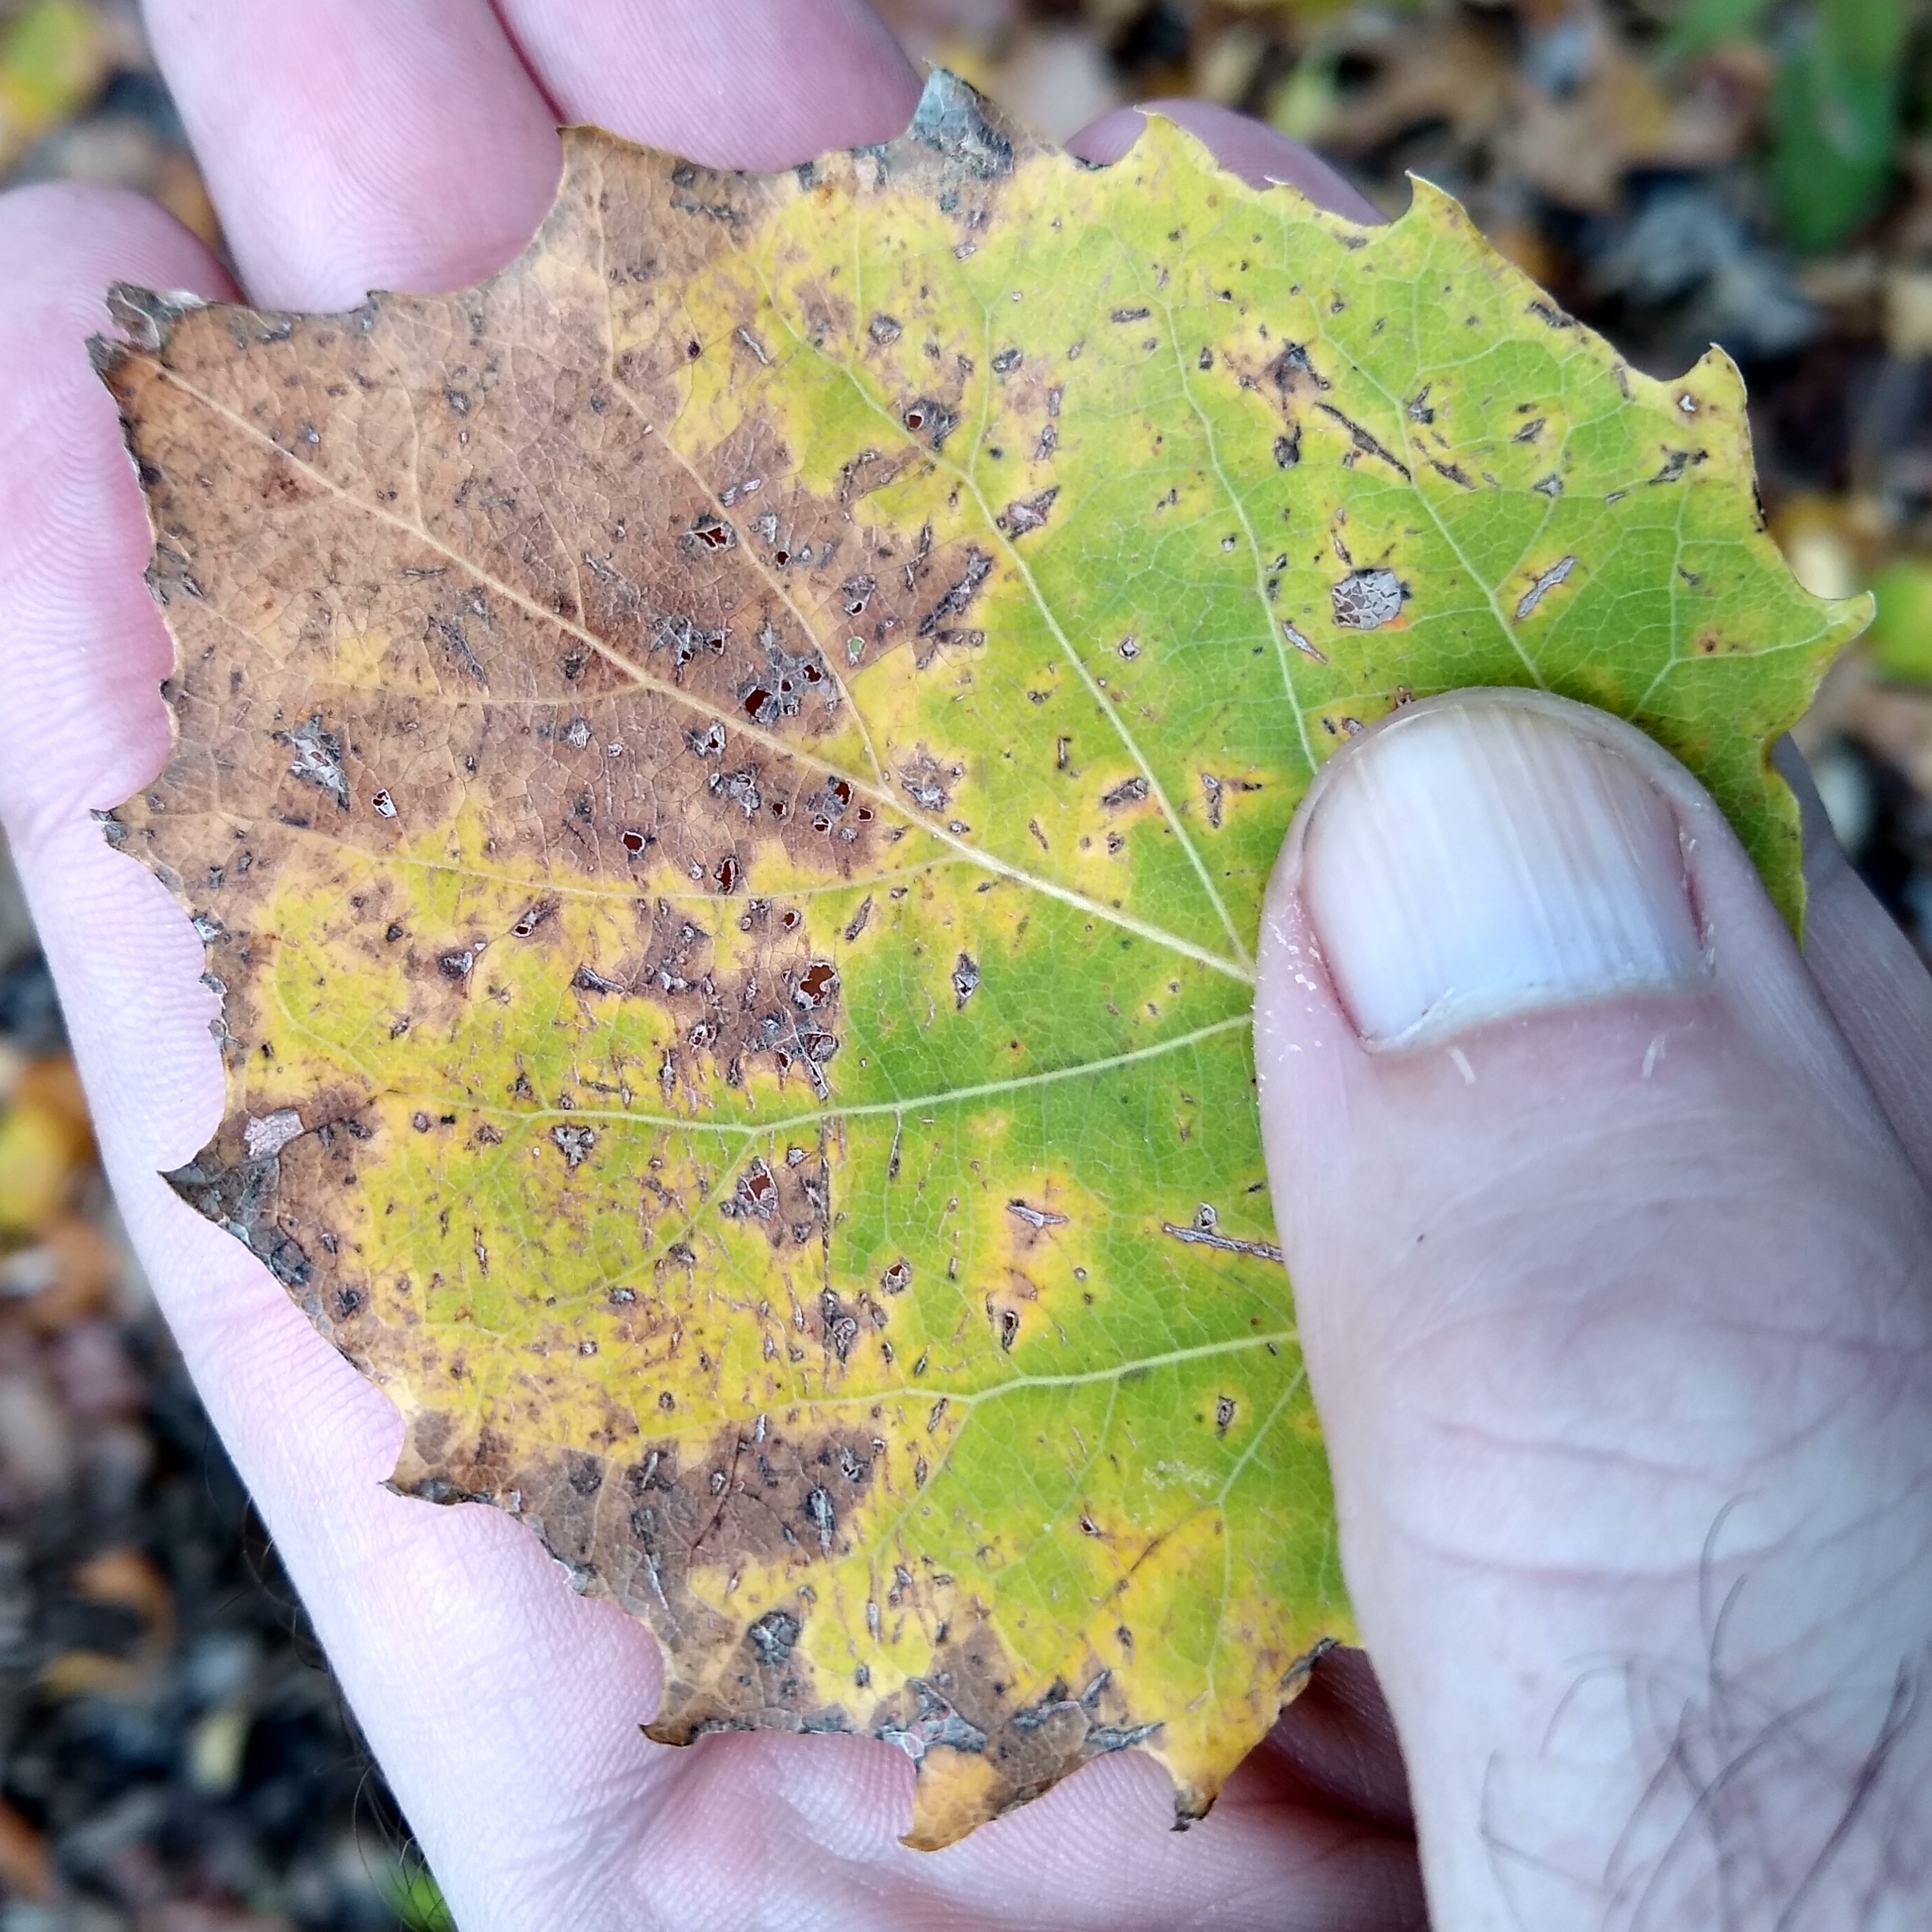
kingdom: Plantae
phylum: Tracheophyta
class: Magnoliopsida
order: Malpighiales
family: Salicaceae
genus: Populus
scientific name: Populus grandidentata
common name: Bigtooth aspen
